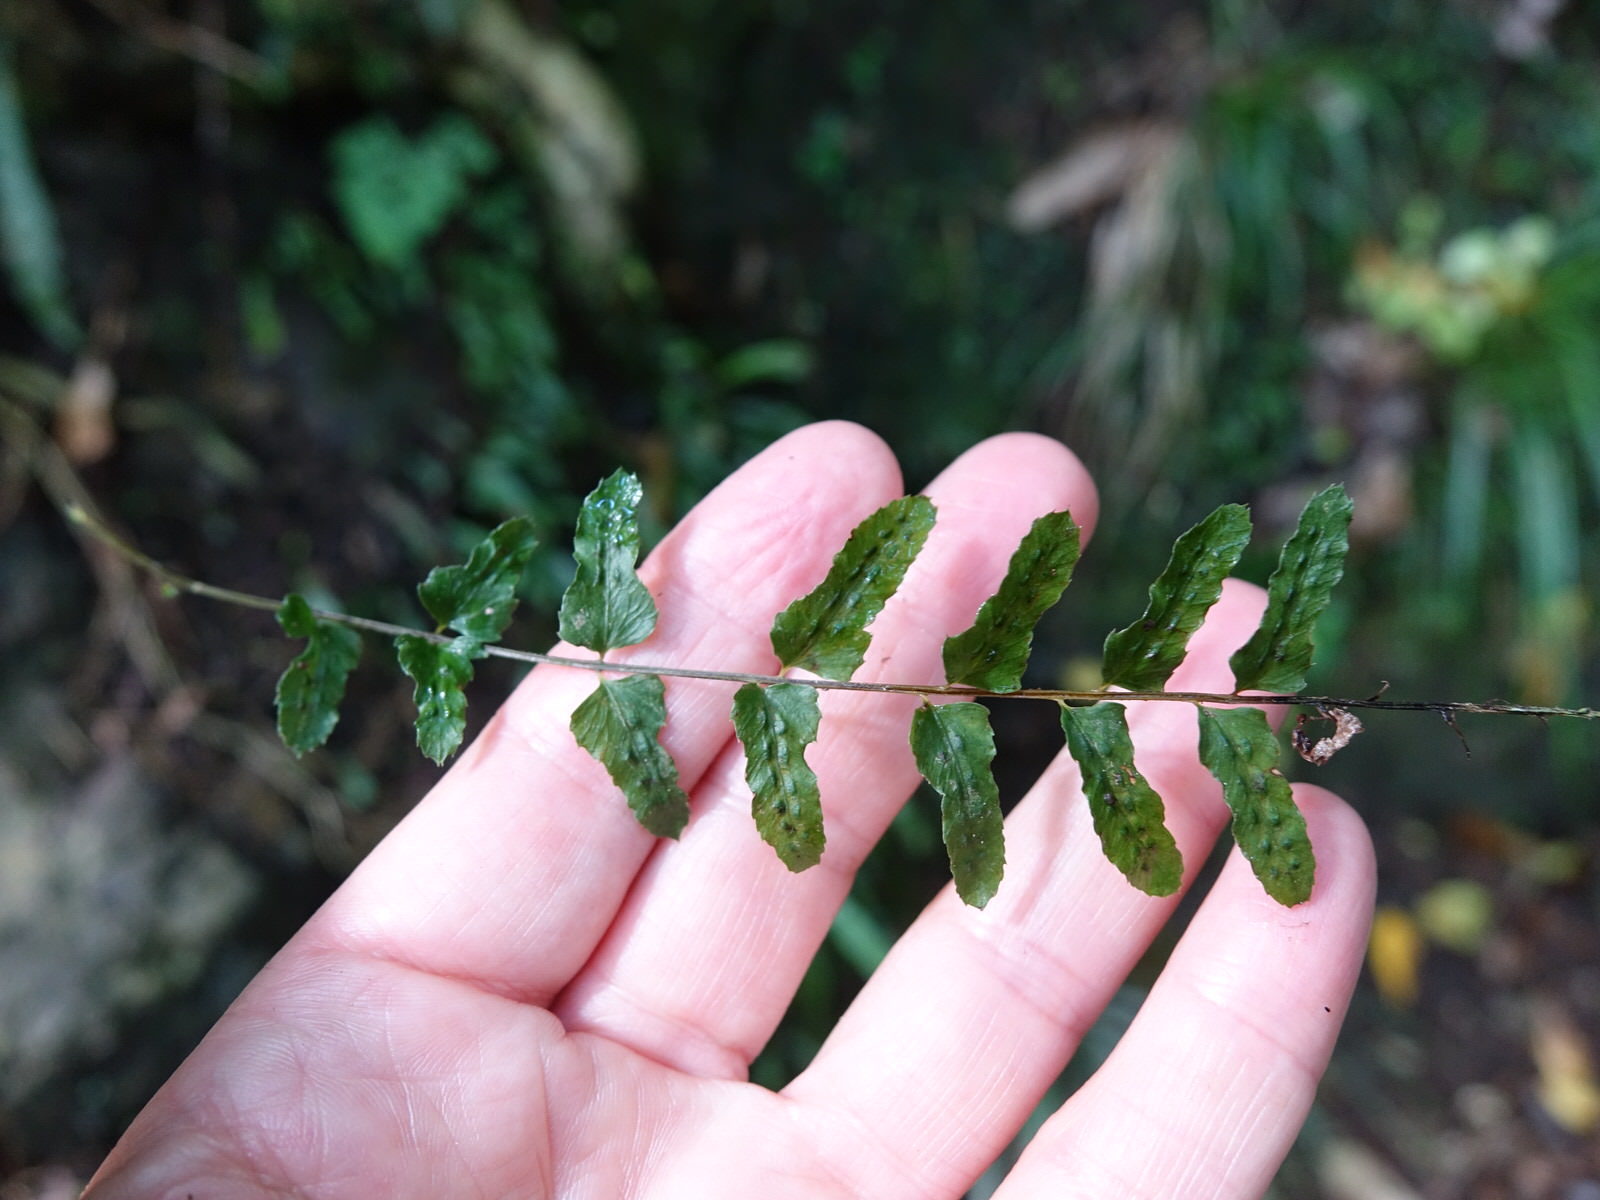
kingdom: Plantae
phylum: Tracheophyta
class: Polypodiopsida
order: Polypodiales
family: Blechnaceae
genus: Doodia
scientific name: Doodia mollis
